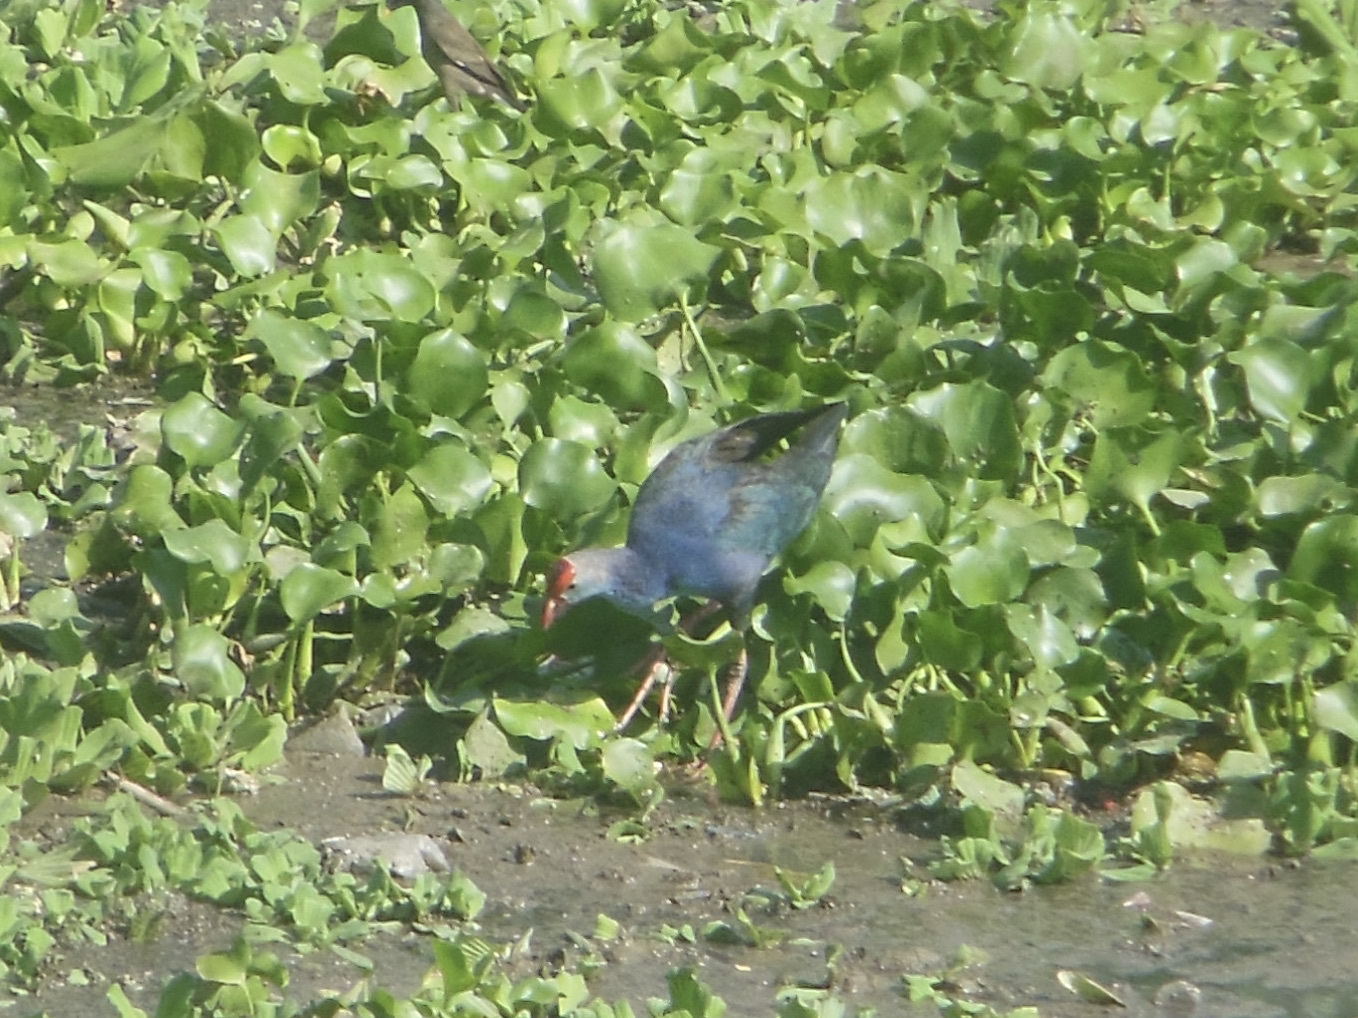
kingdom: Animalia
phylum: Chordata
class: Aves
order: Gruiformes
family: Rallidae
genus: Porphyrio
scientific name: Porphyrio porphyrio
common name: Purple swamphen
